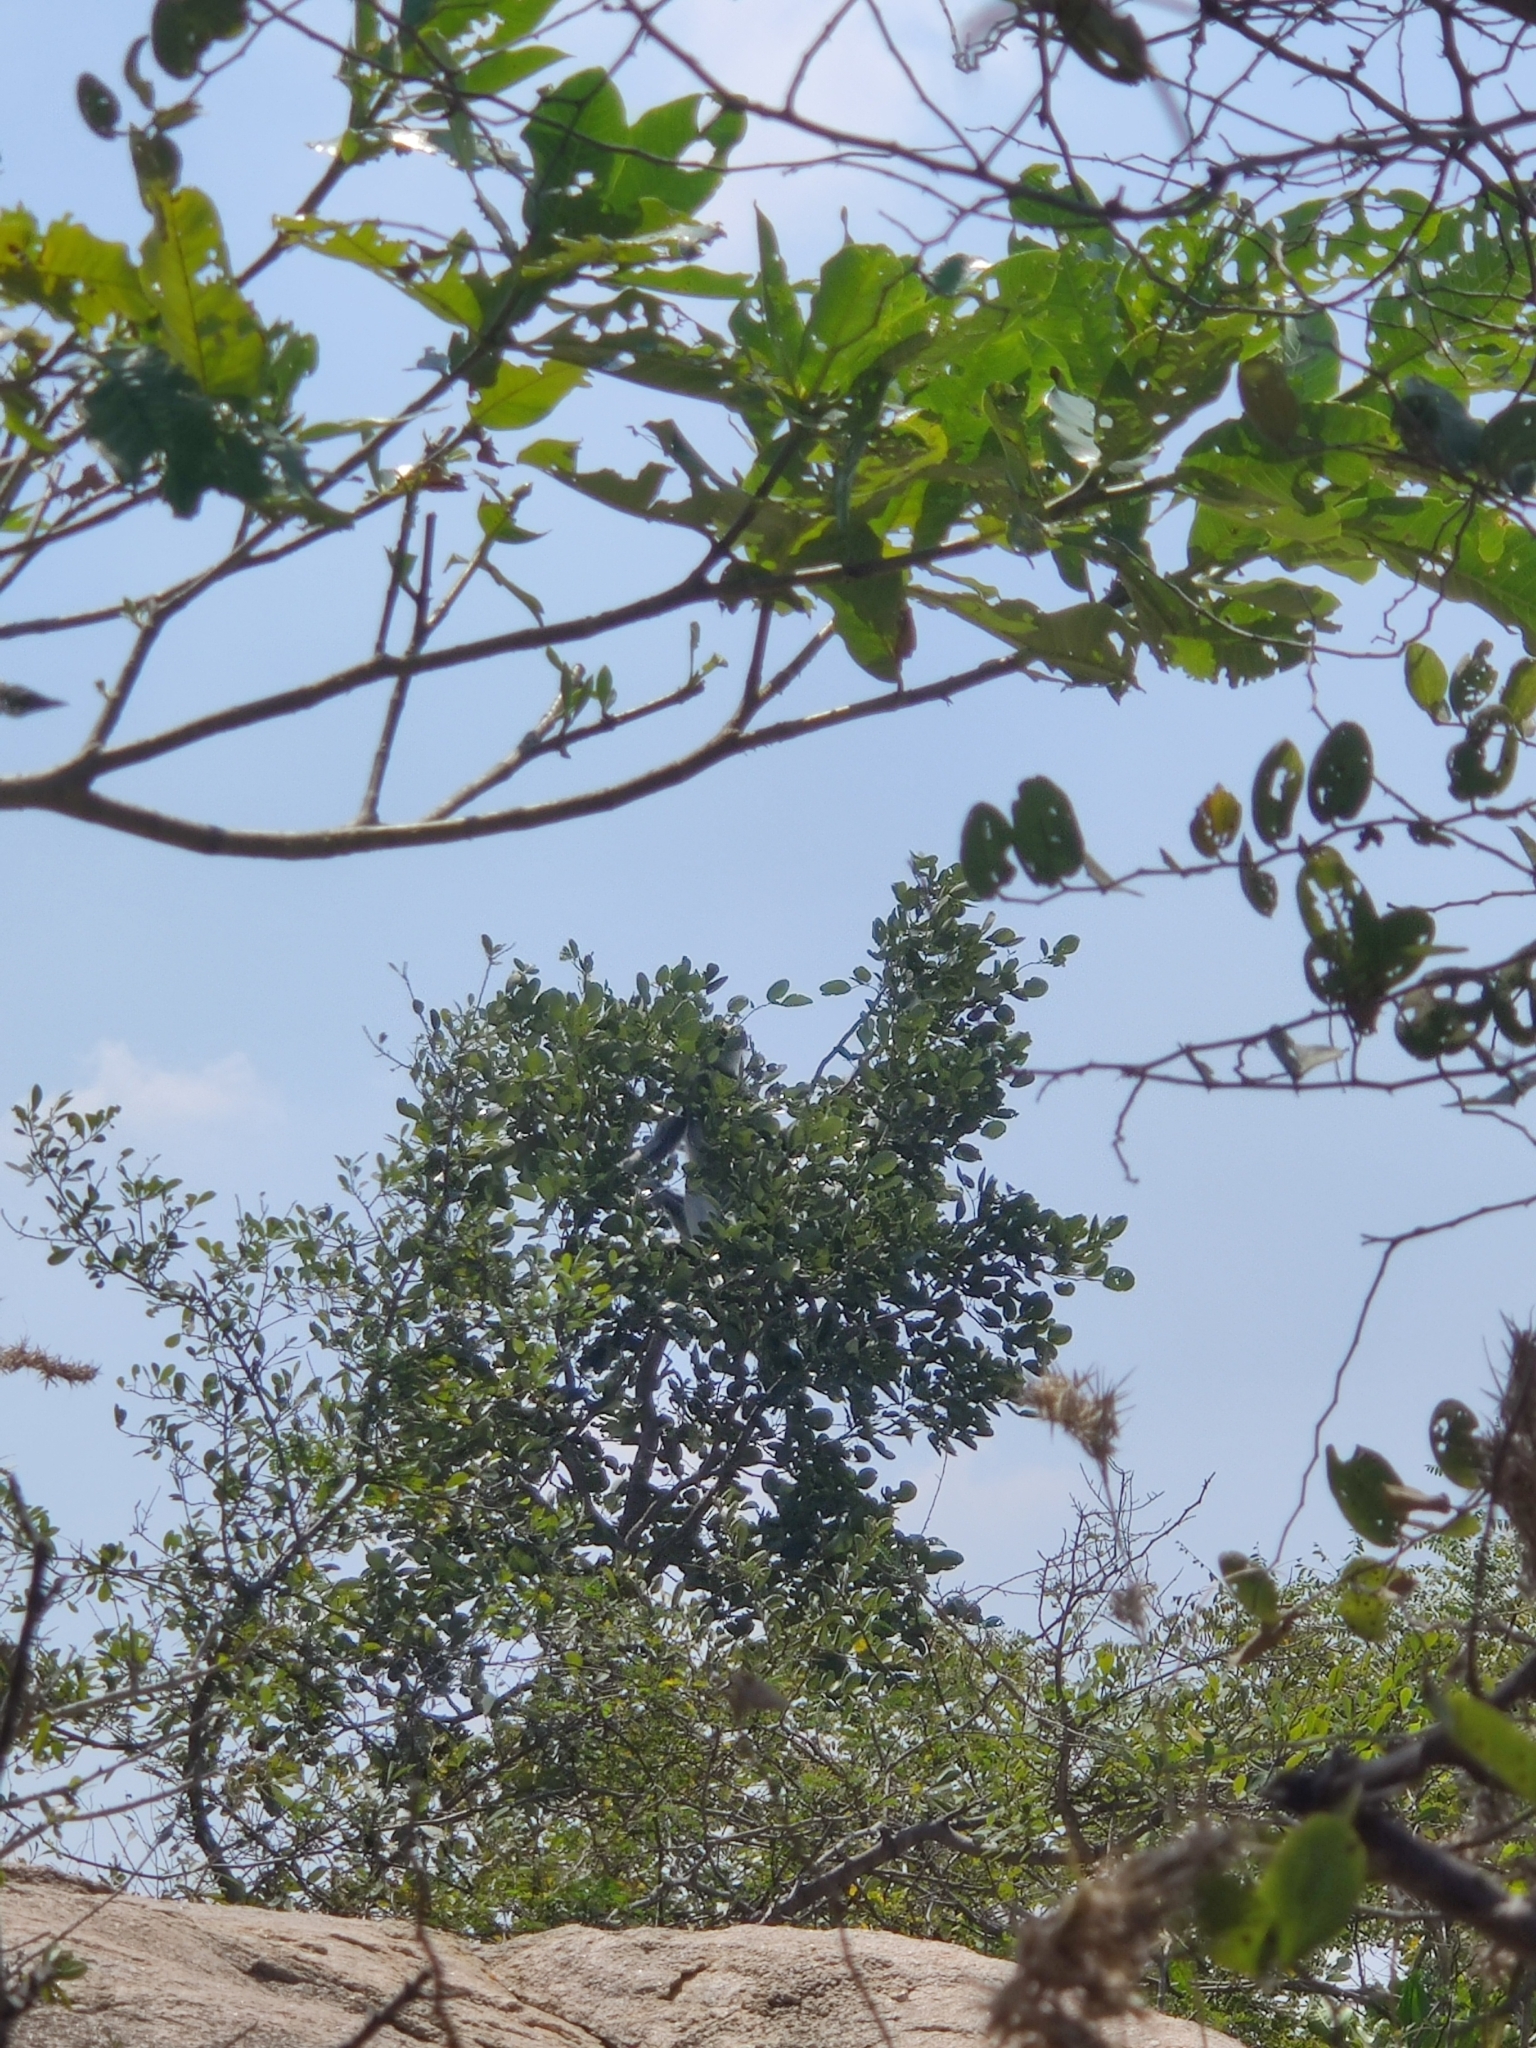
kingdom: Animalia
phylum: Chordata
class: Mammalia
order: Primates
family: Cercopithecidae
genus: Semnopithecus
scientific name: Semnopithecus priam
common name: Tufted gray langur
